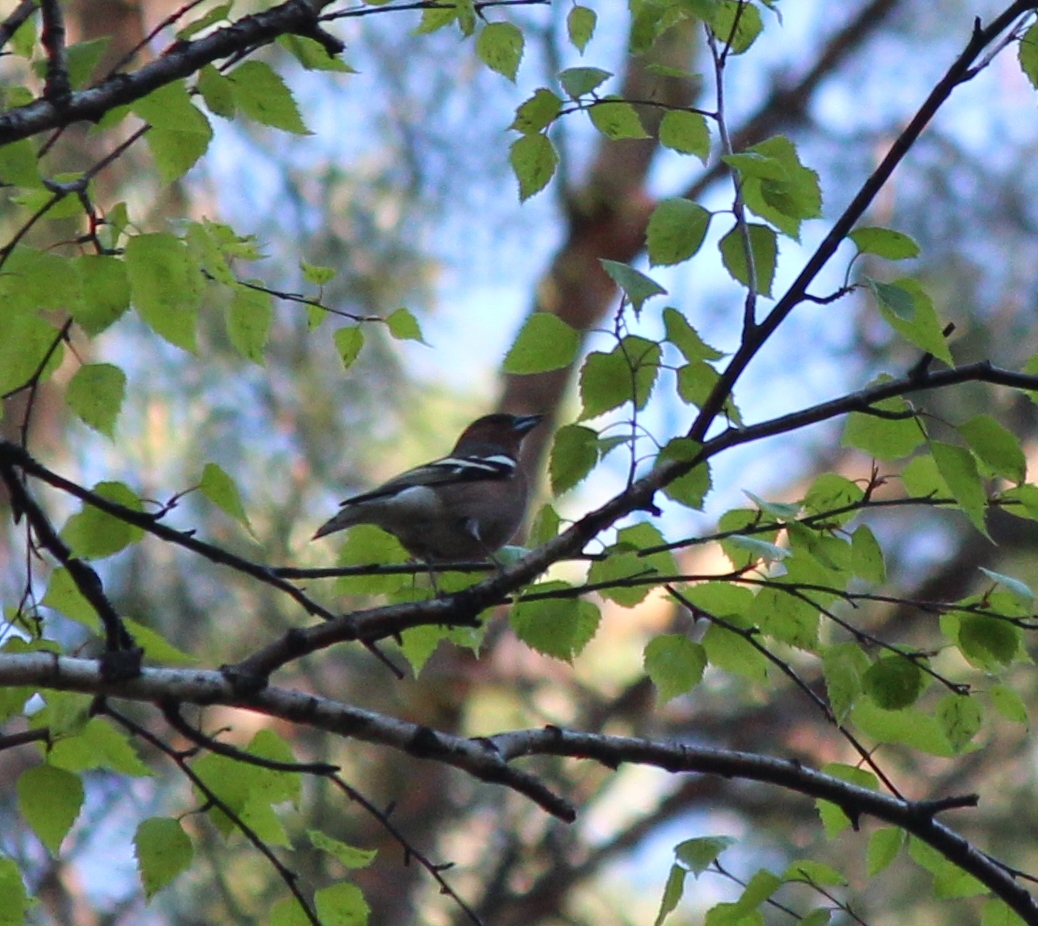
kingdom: Animalia
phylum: Chordata
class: Aves
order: Passeriformes
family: Fringillidae
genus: Fringilla
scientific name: Fringilla coelebs
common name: Common chaffinch
